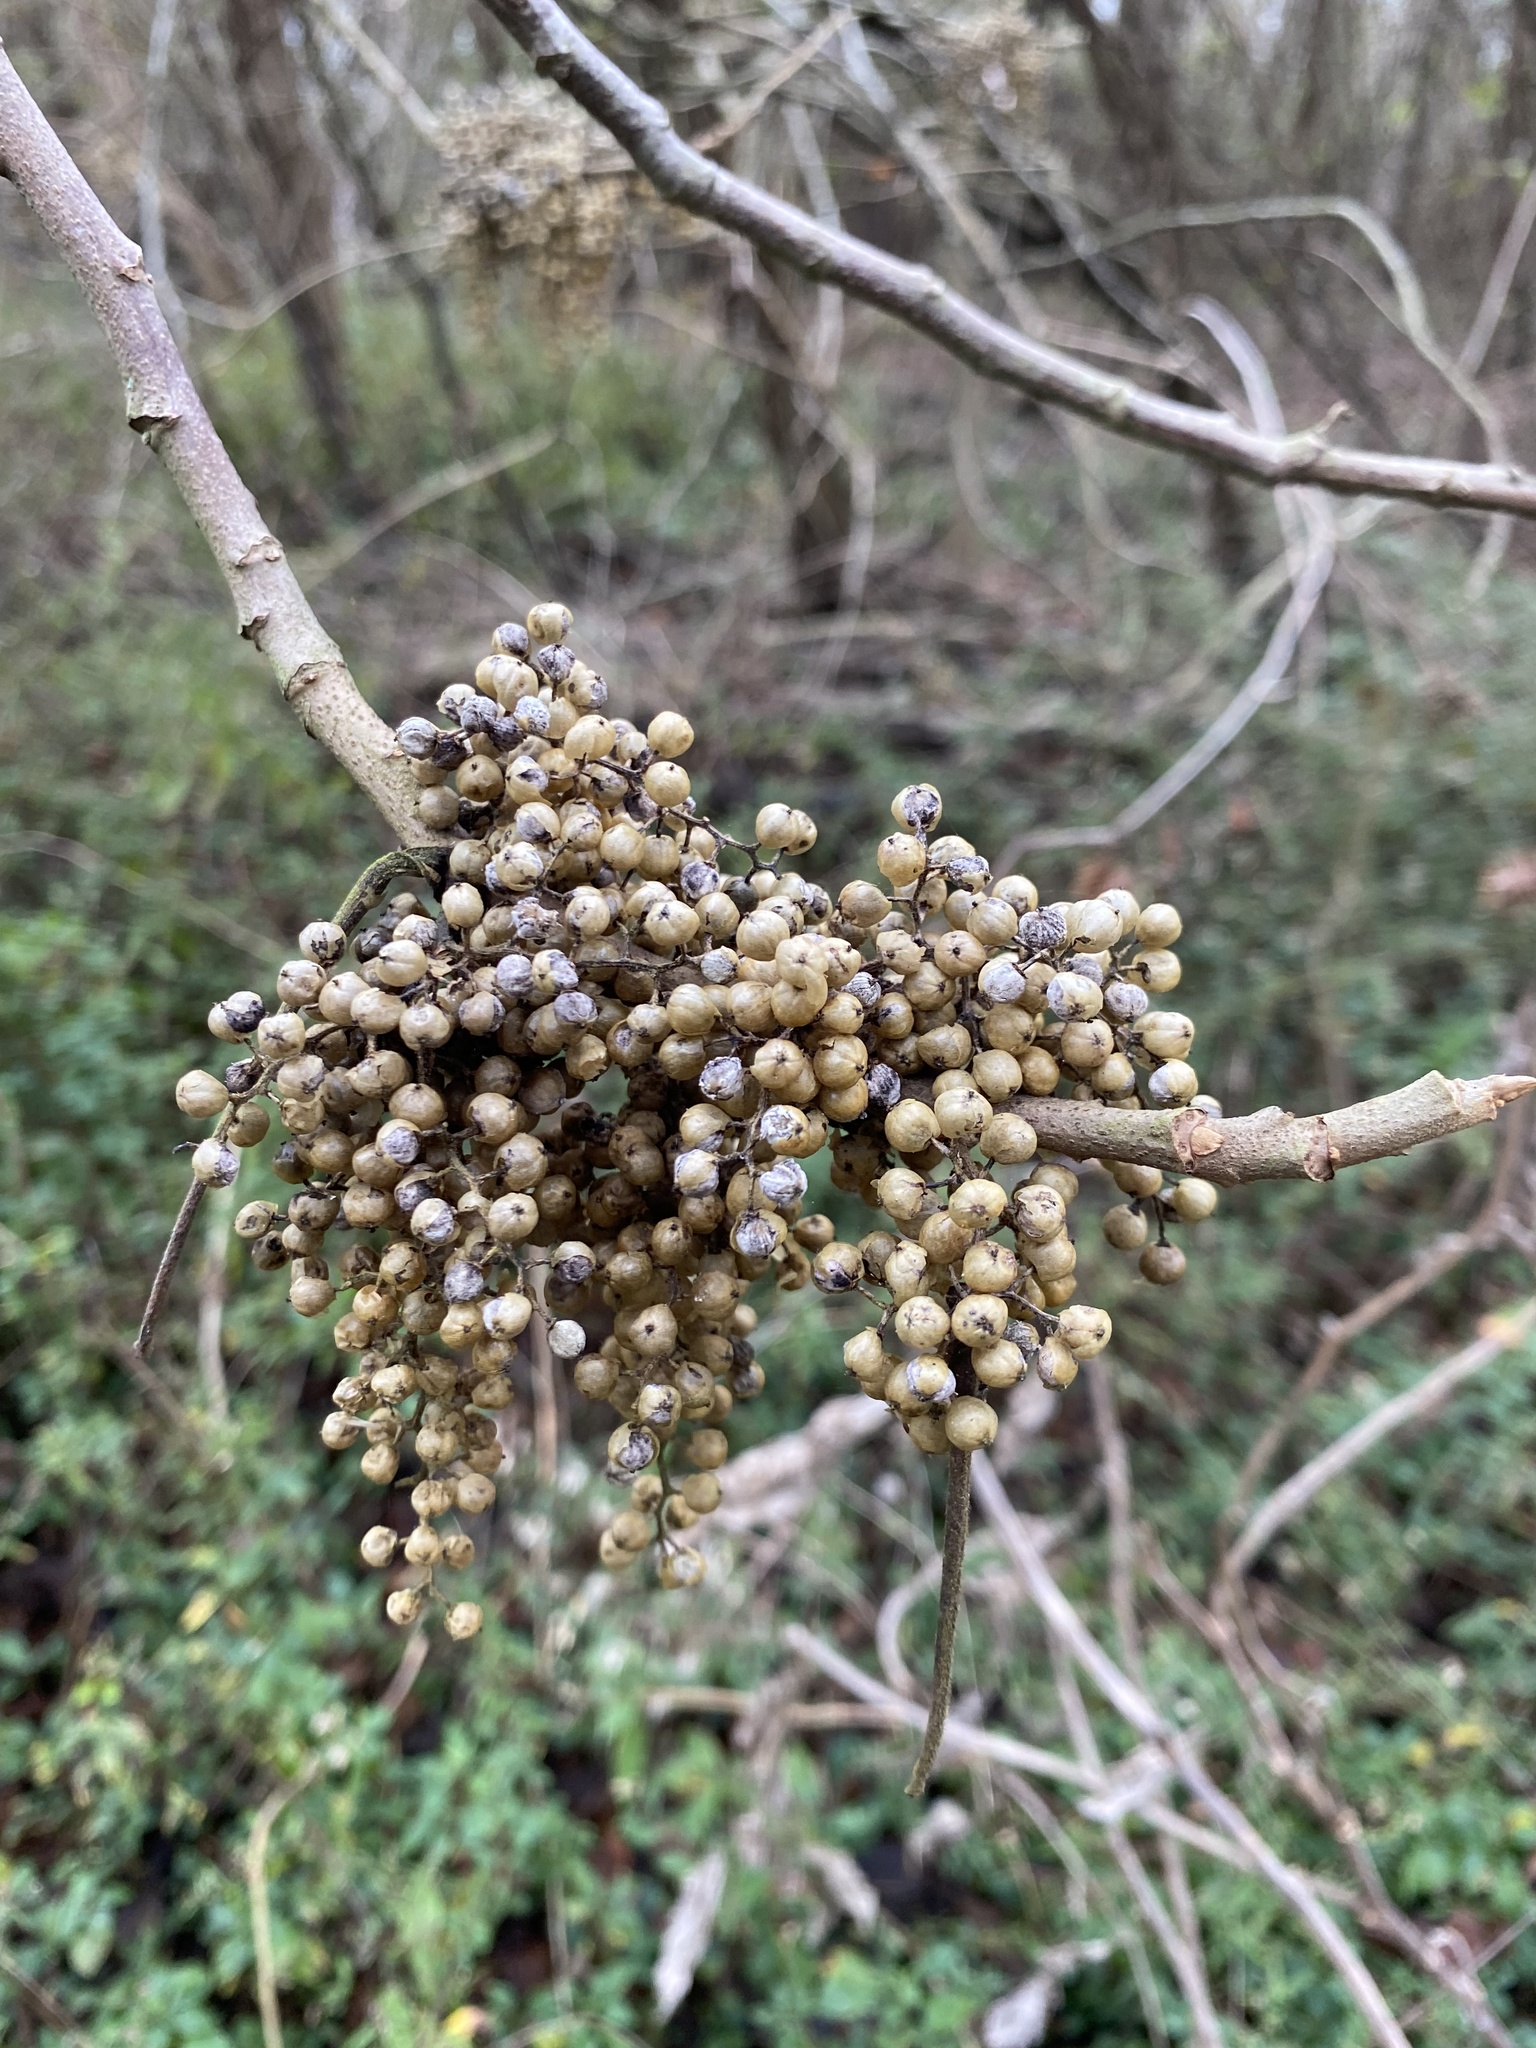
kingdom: Plantae
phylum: Tracheophyta
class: Magnoliopsida
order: Sapindales
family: Anacardiaceae
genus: Toxicodendron
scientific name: Toxicodendron radicans
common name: Poison ivy
